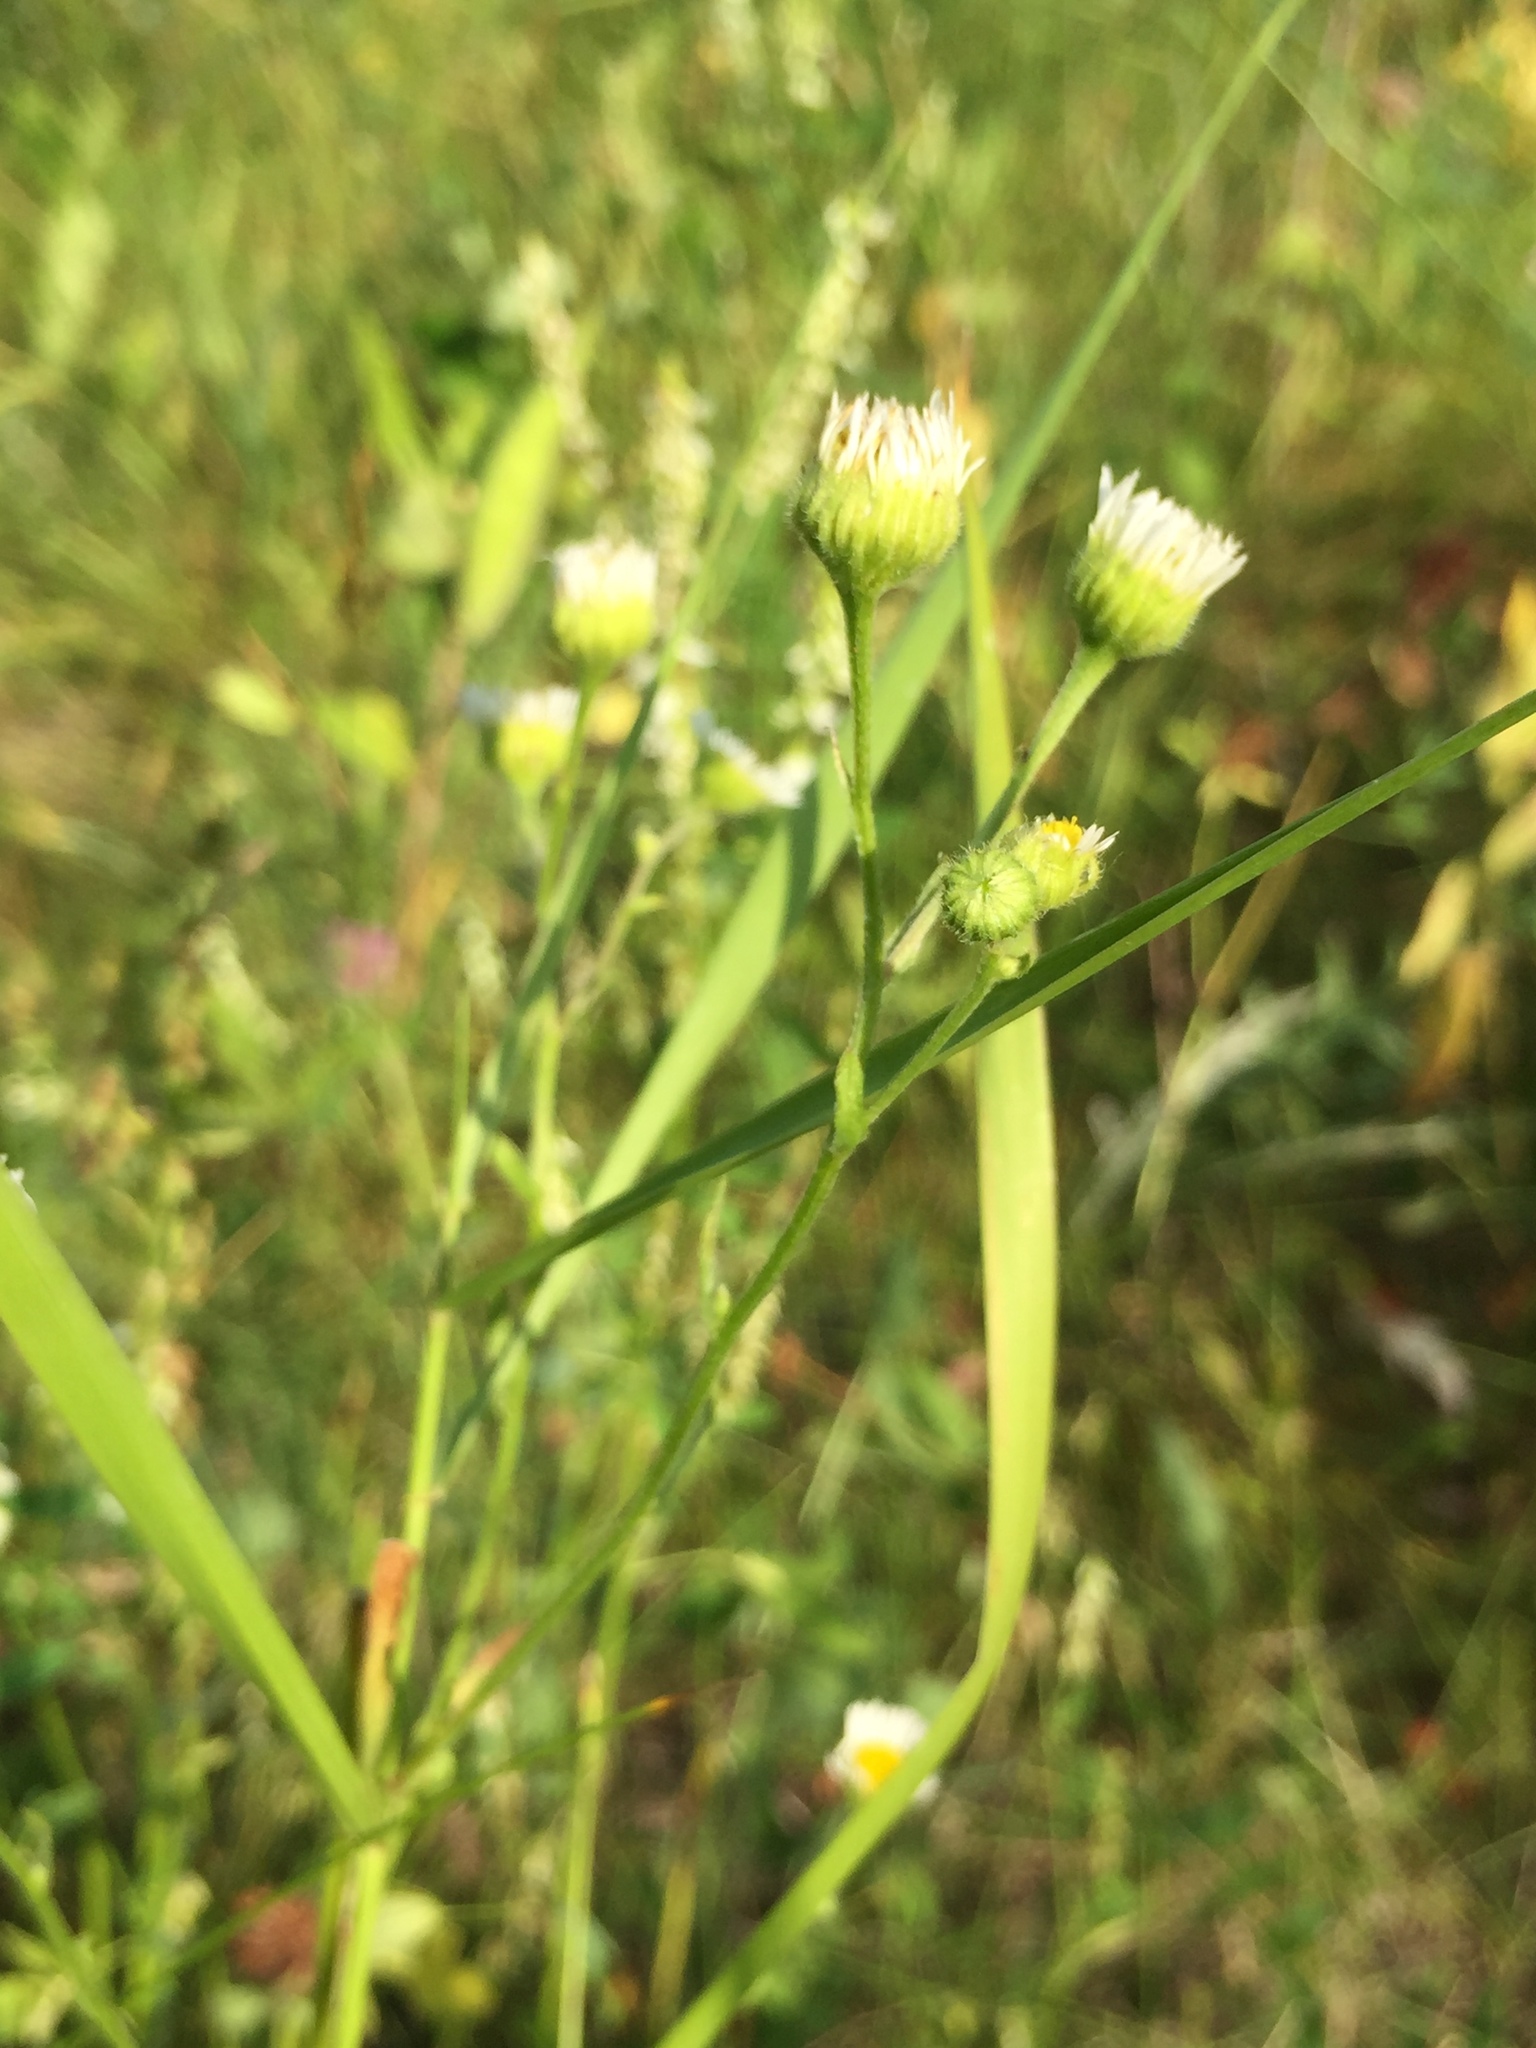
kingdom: Plantae
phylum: Tracheophyta
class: Magnoliopsida
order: Asterales
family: Asteraceae
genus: Erigeron
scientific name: Erigeron glabellus
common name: Smooth fleabane
